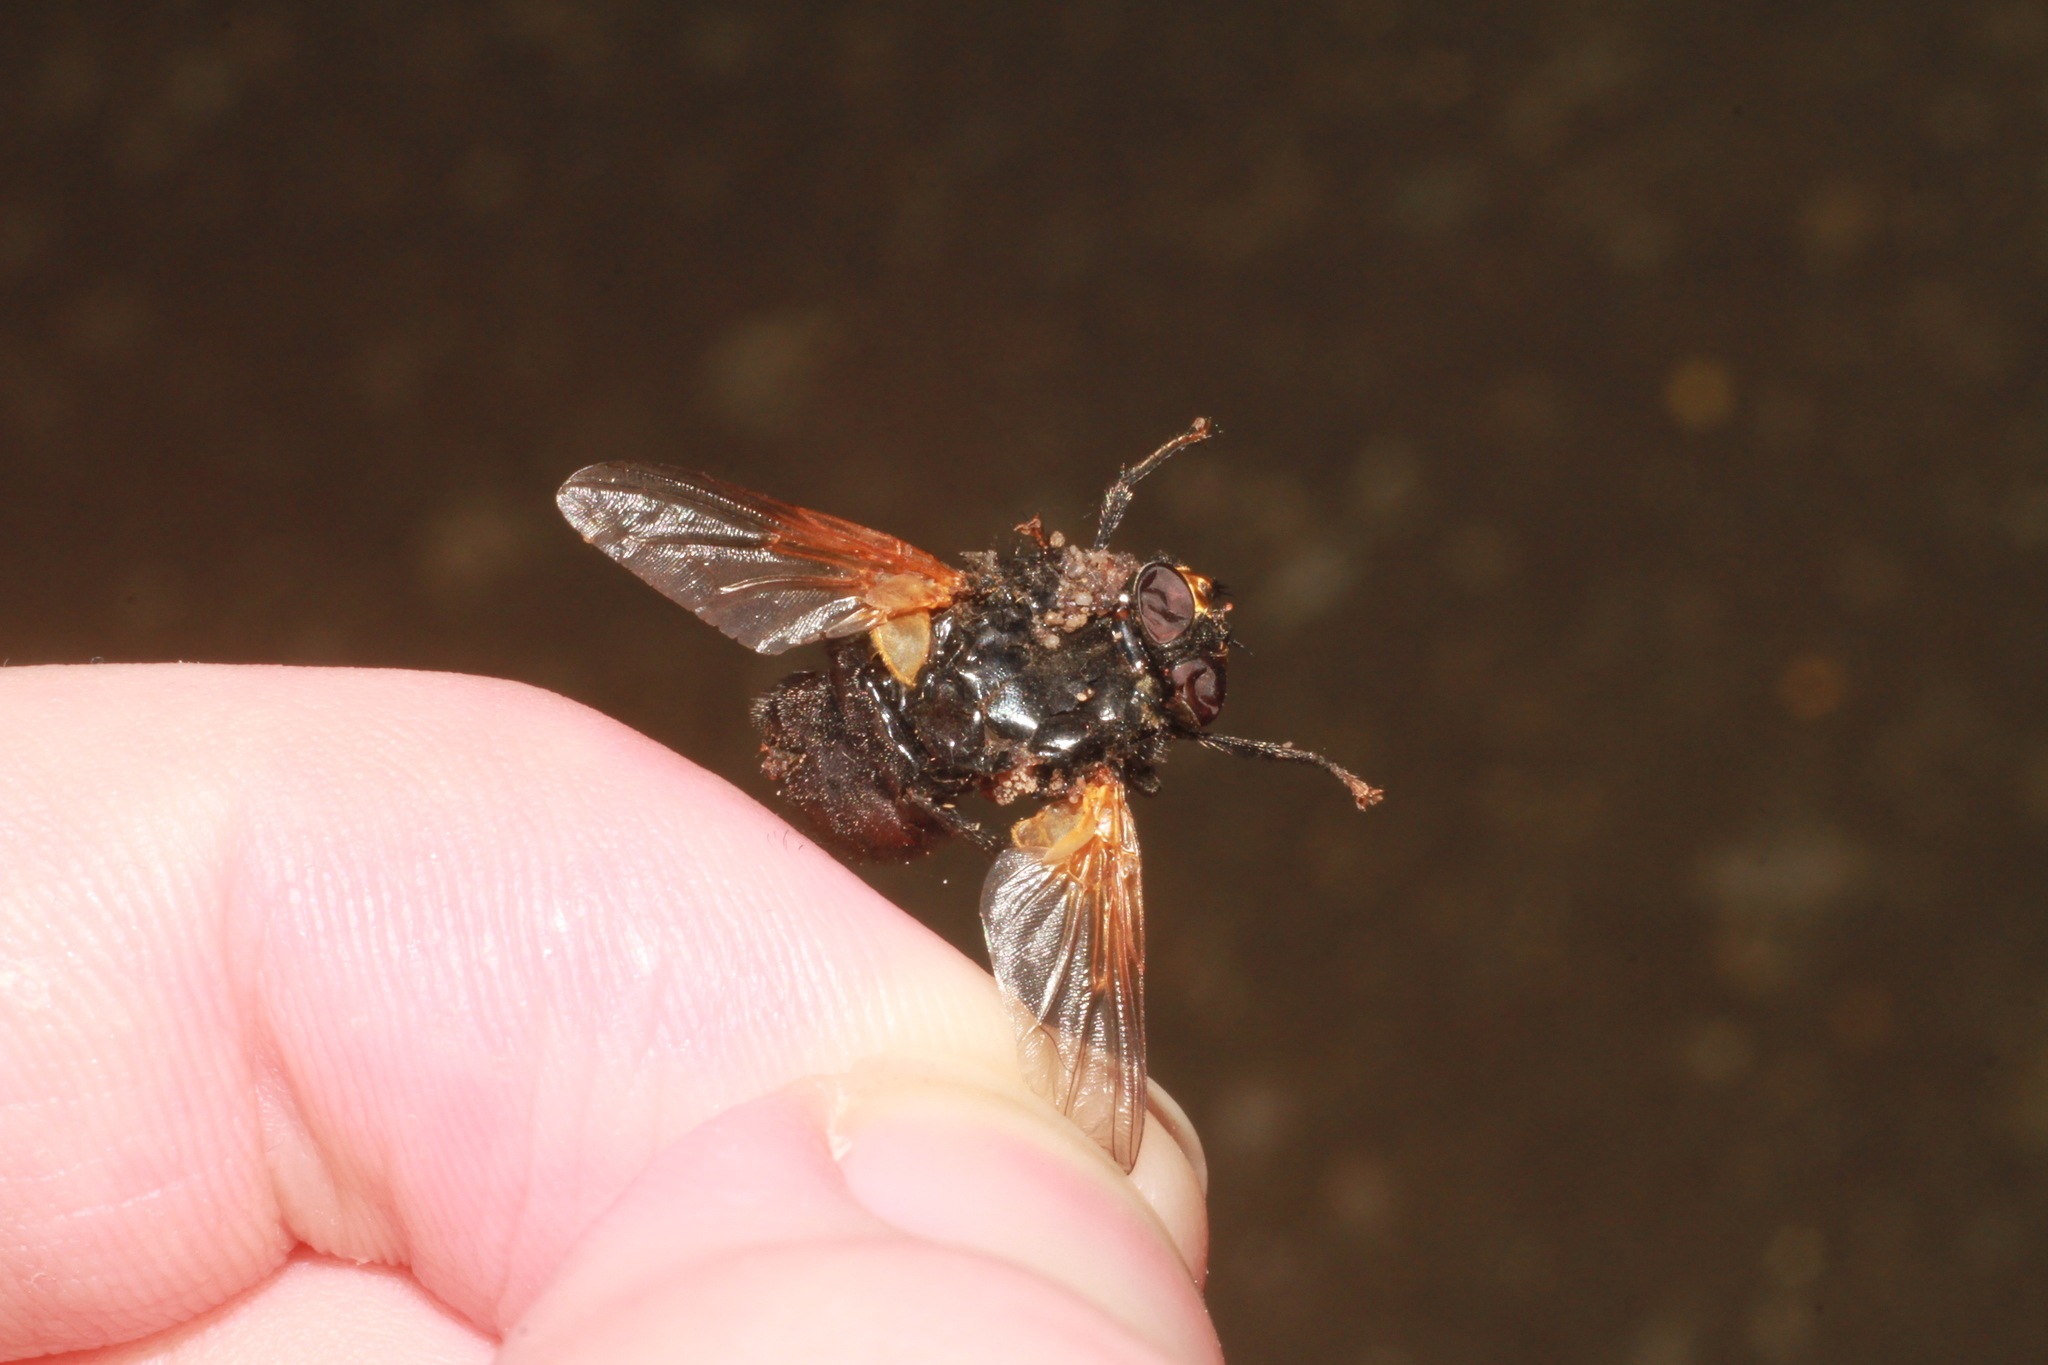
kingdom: Animalia
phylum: Arthropoda
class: Insecta
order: Diptera
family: Muscidae
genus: Mesembrina
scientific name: Mesembrina meridiana
